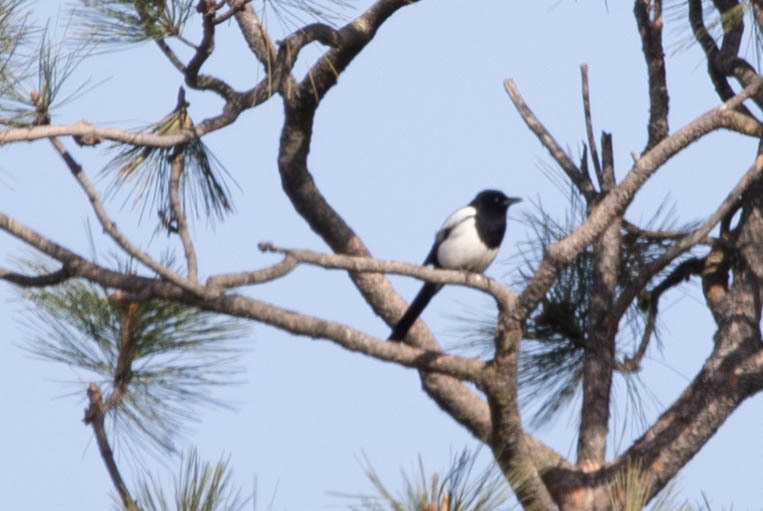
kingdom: Animalia
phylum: Chordata
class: Aves
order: Passeriformes
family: Corvidae
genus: Pica
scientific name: Pica hudsonia
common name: Black-billed magpie
